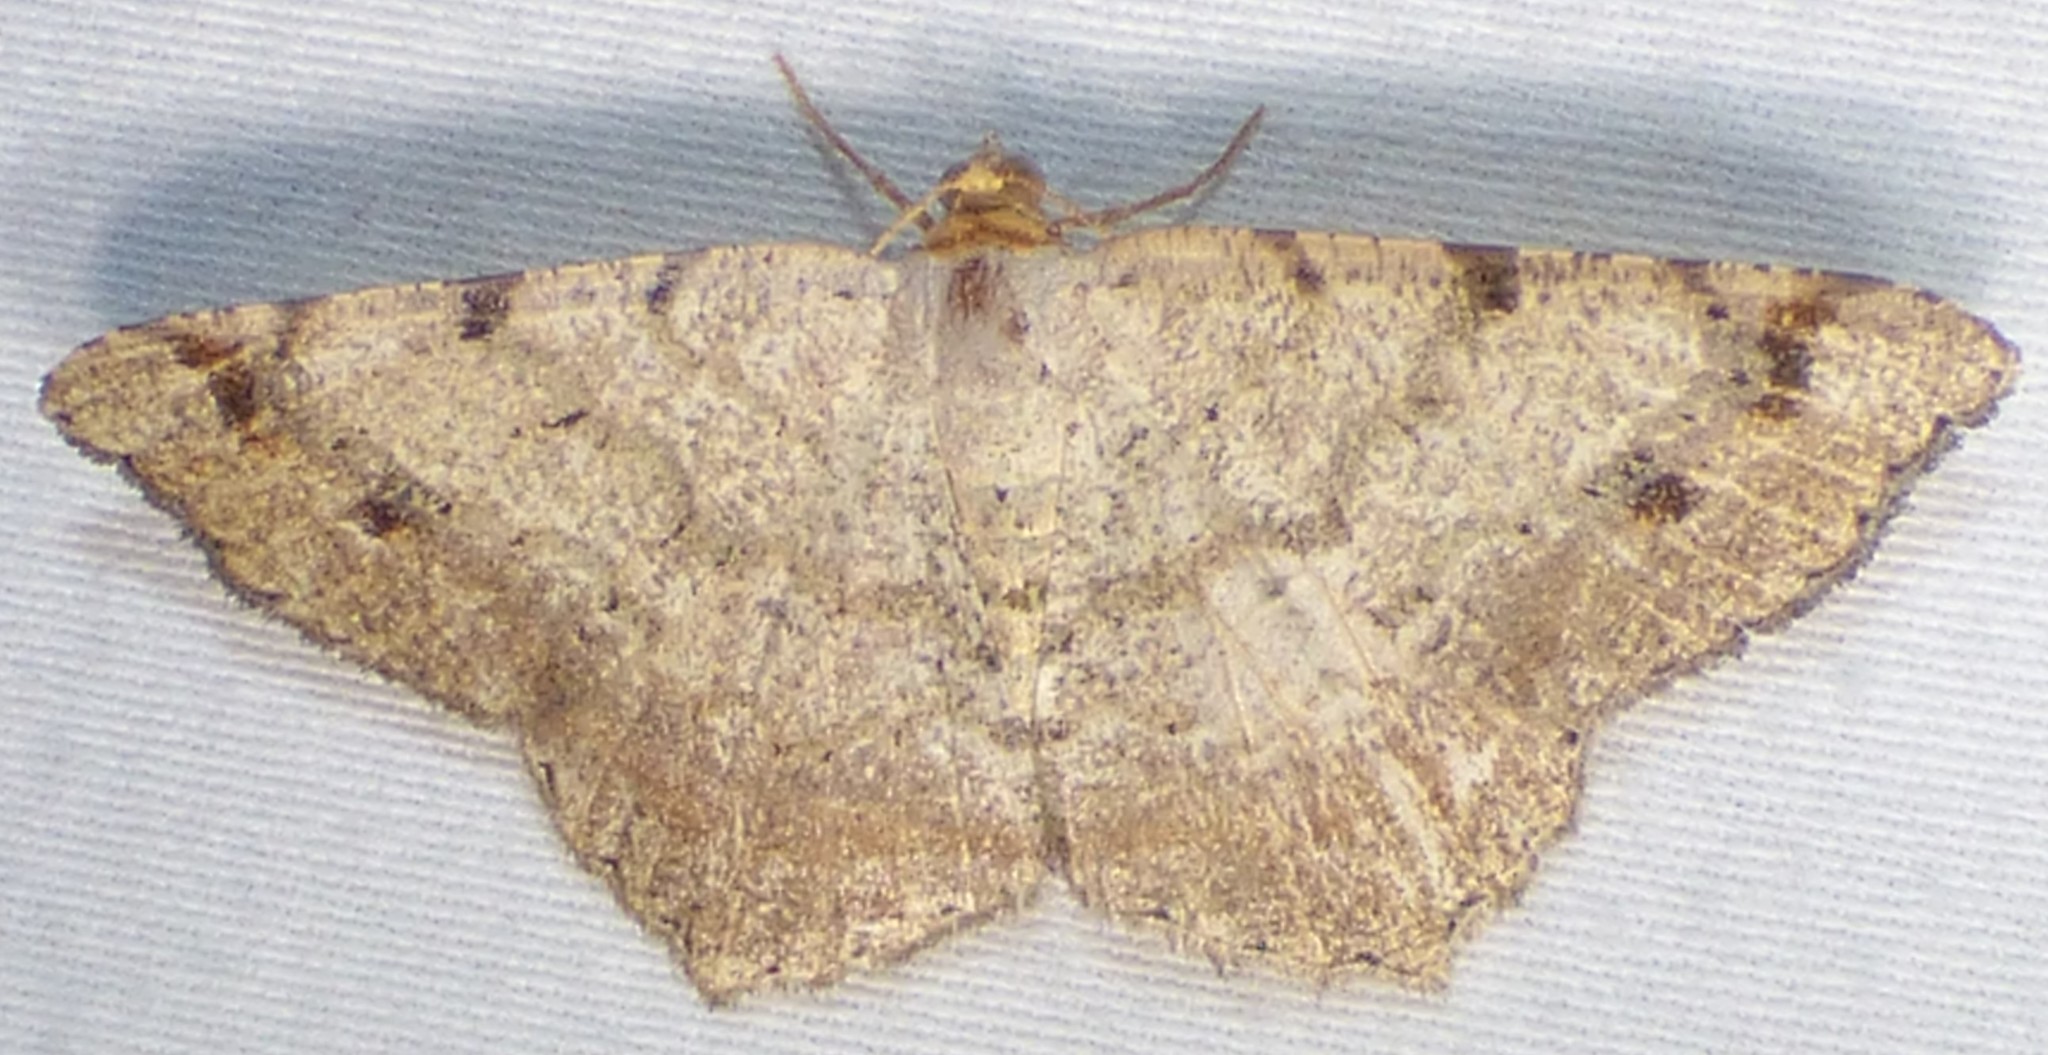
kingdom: Animalia
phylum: Arthropoda
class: Insecta
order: Lepidoptera
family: Geometridae
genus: Macaria
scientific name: Macaria bisignata
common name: Red-headed inchworm
